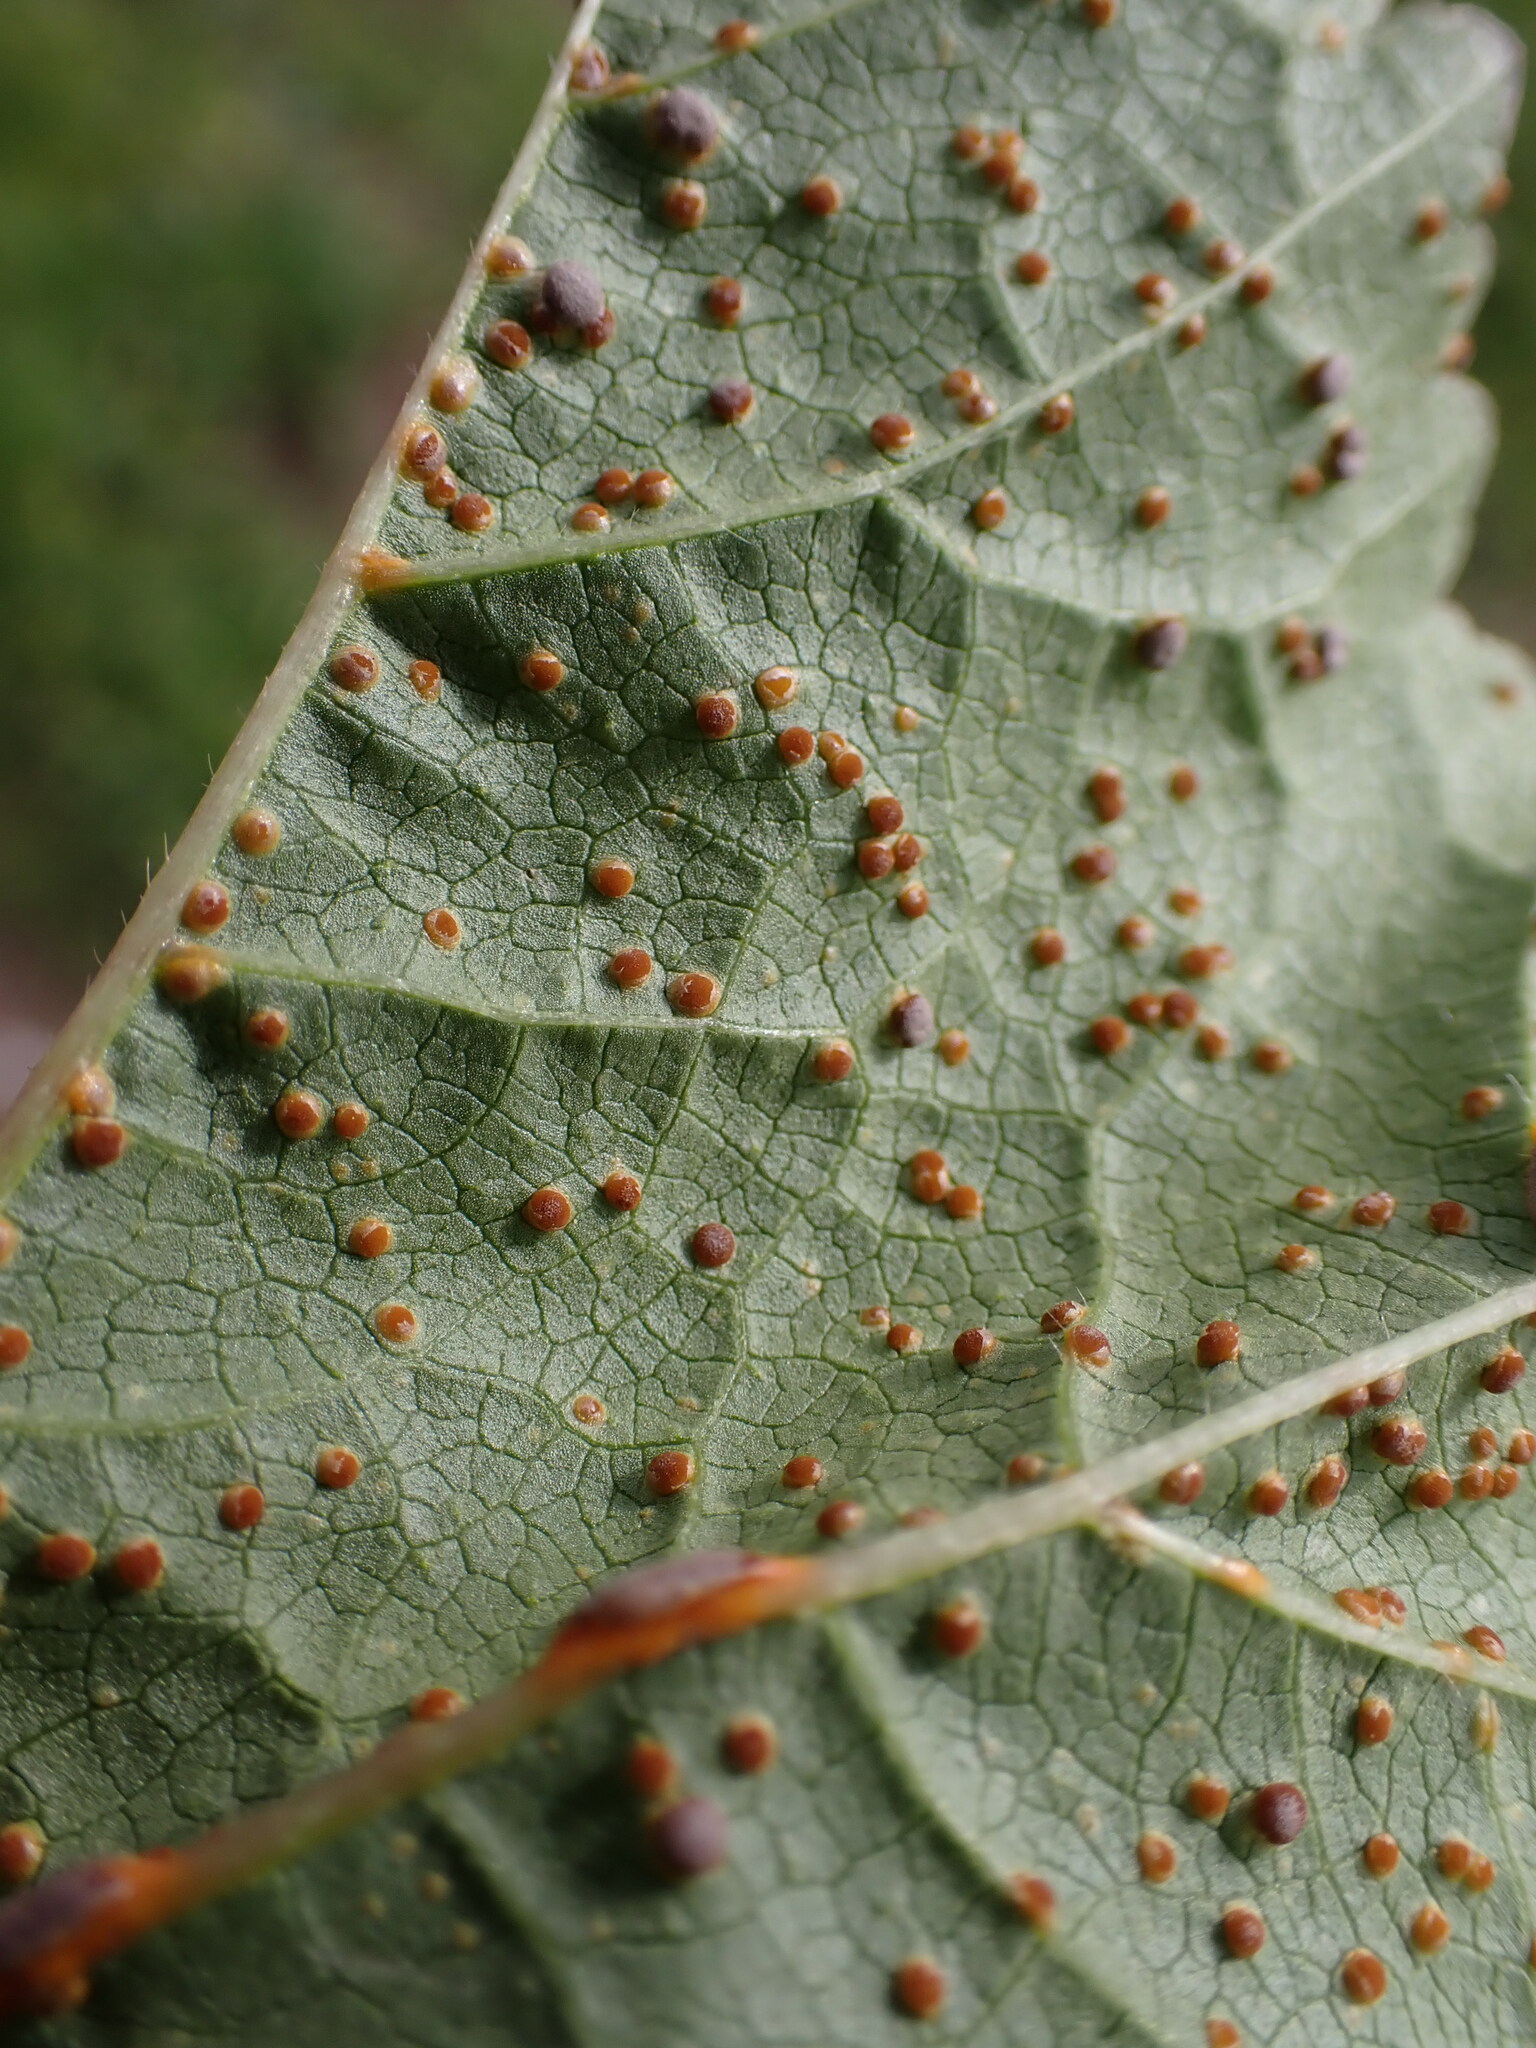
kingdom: Fungi
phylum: Basidiomycota
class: Pucciniomycetes
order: Pucciniales
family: Pucciniaceae
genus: Puccinia
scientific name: Puccinia malvacearum
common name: Hollyhock rust
